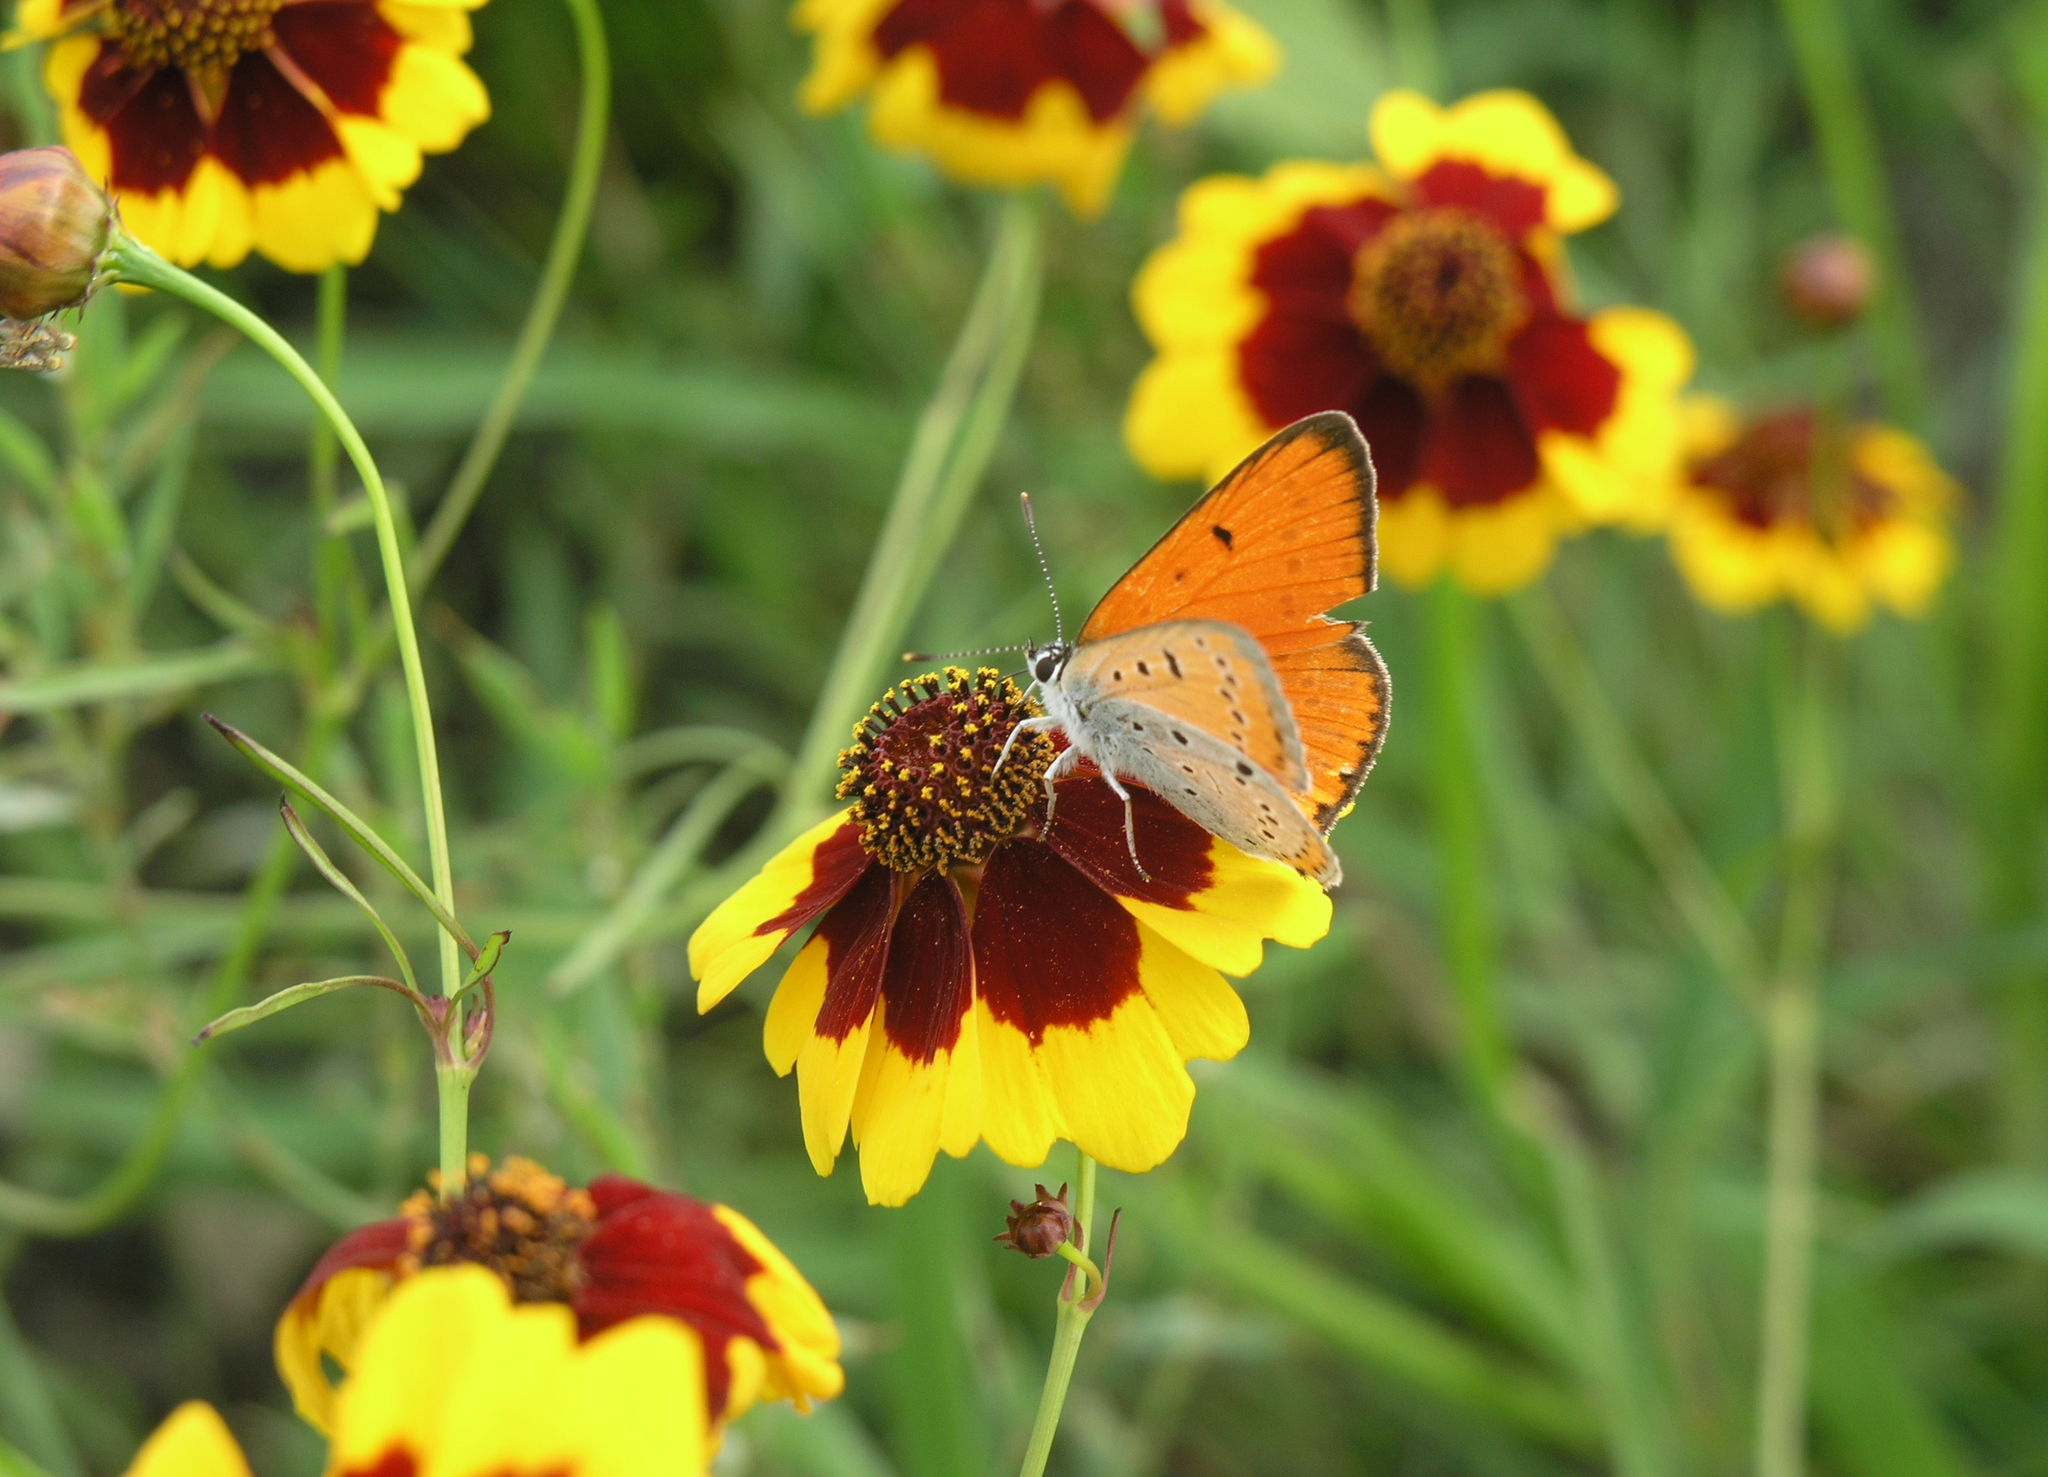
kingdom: Animalia
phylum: Arthropoda
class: Insecta
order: Lepidoptera
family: Lycaenidae
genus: Lycaena
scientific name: Lycaena dispar
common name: Large copper
